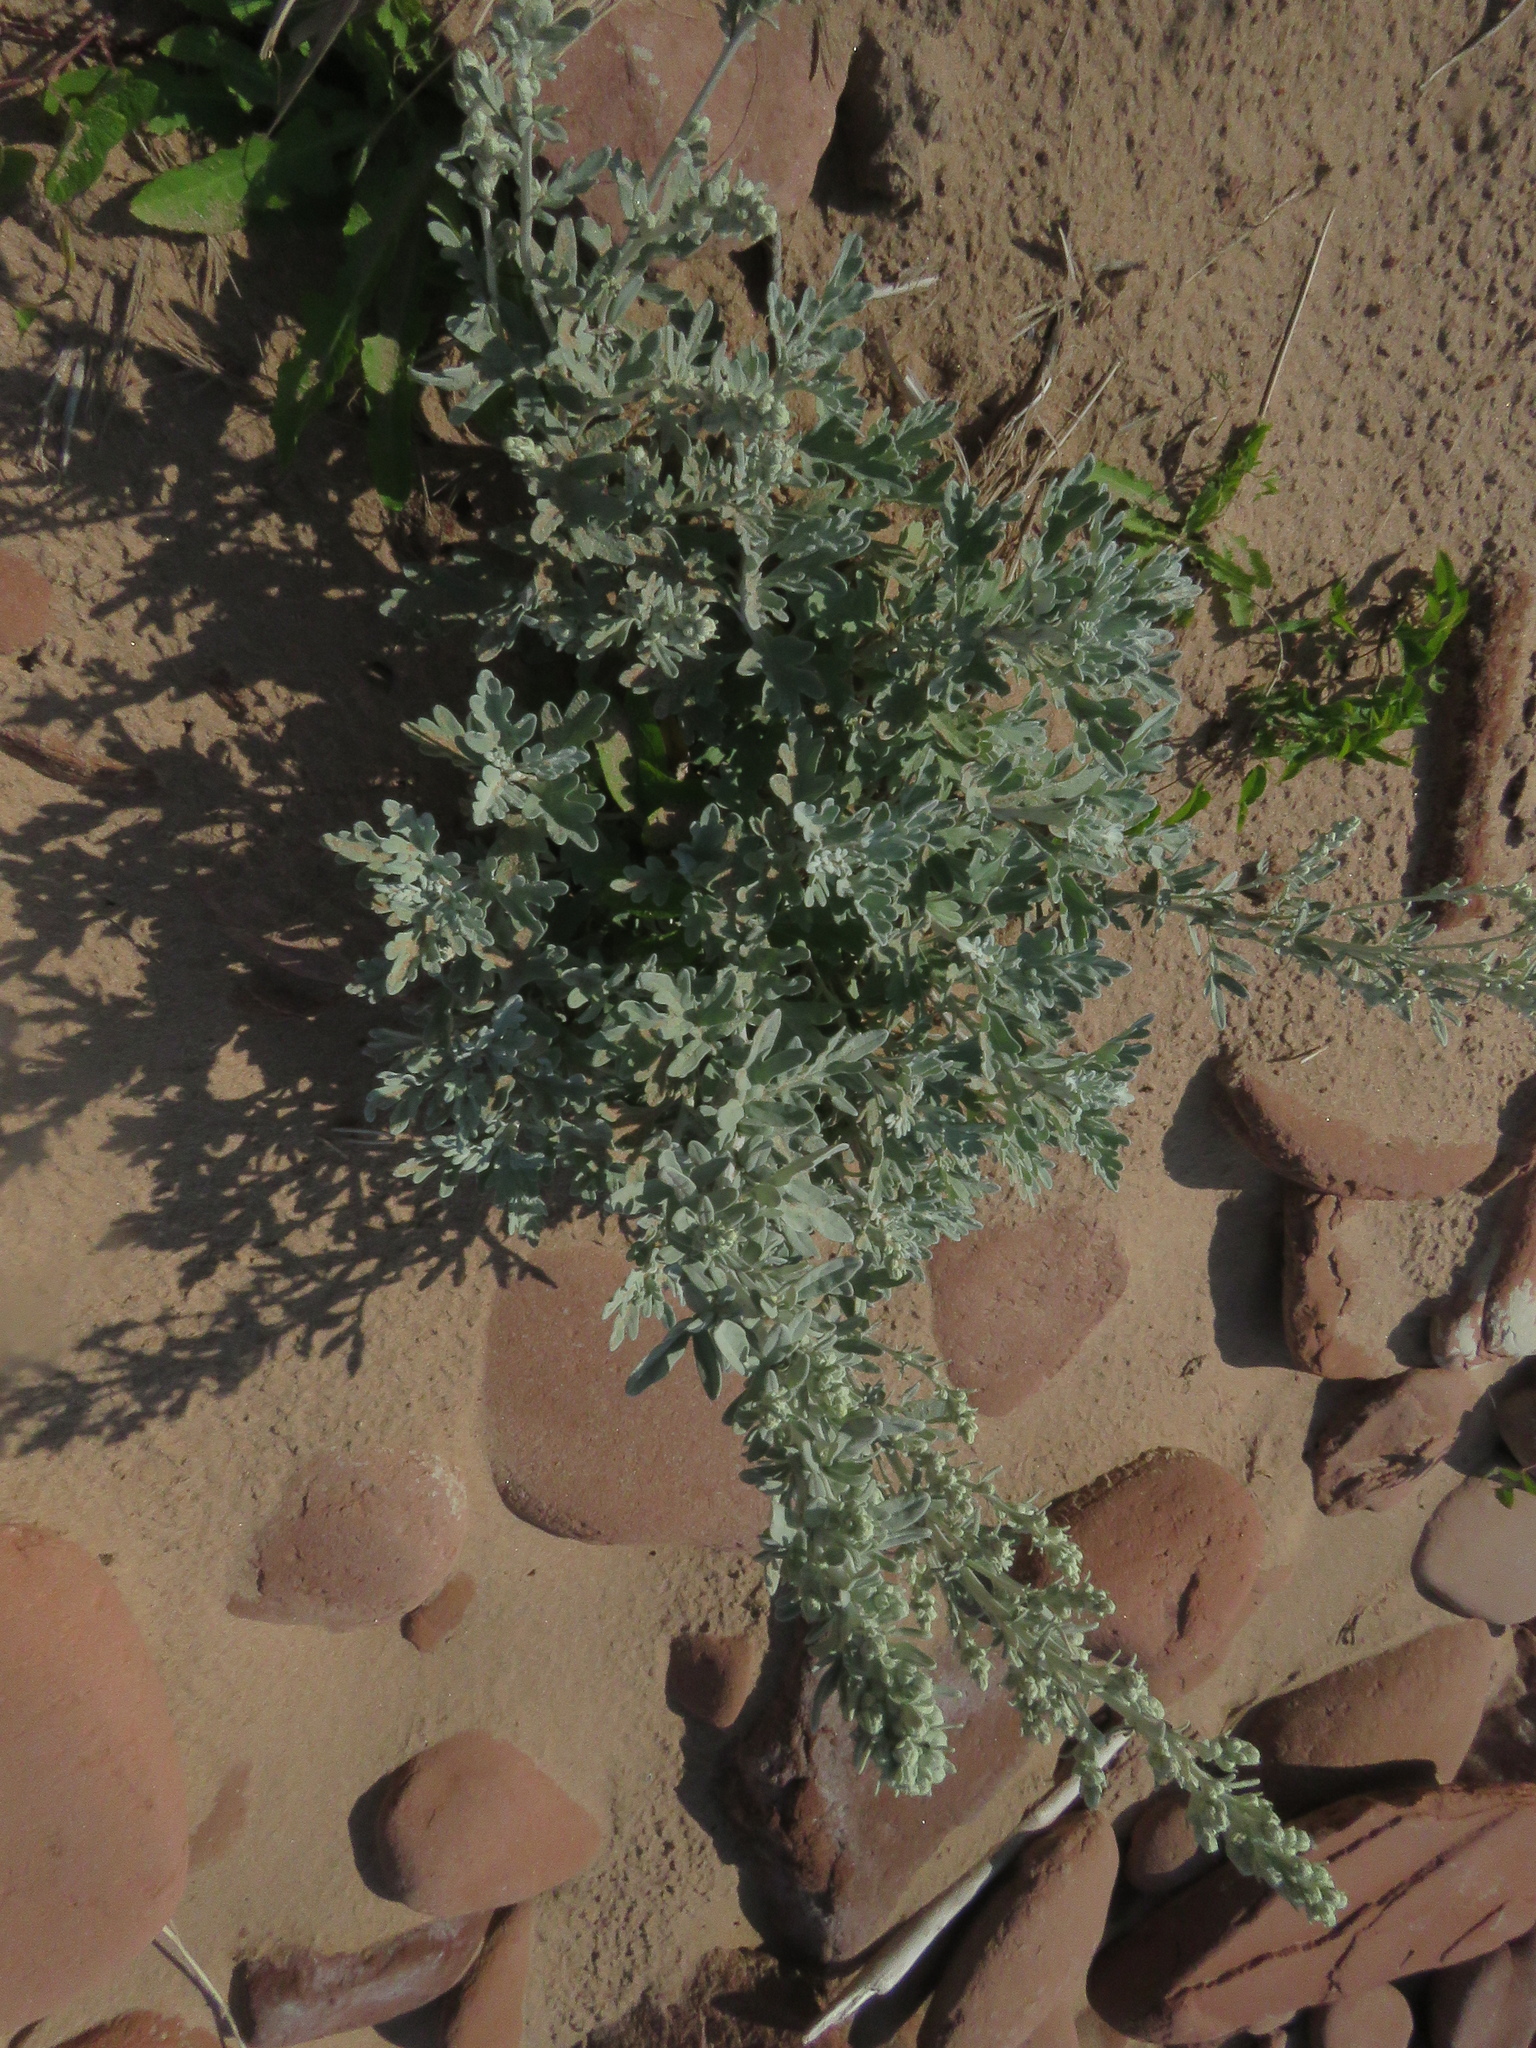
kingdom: Plantae
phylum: Tracheophyta
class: Magnoliopsida
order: Asterales
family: Asteraceae
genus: Artemisia
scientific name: Artemisia stelleriana
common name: Beach wormwood
